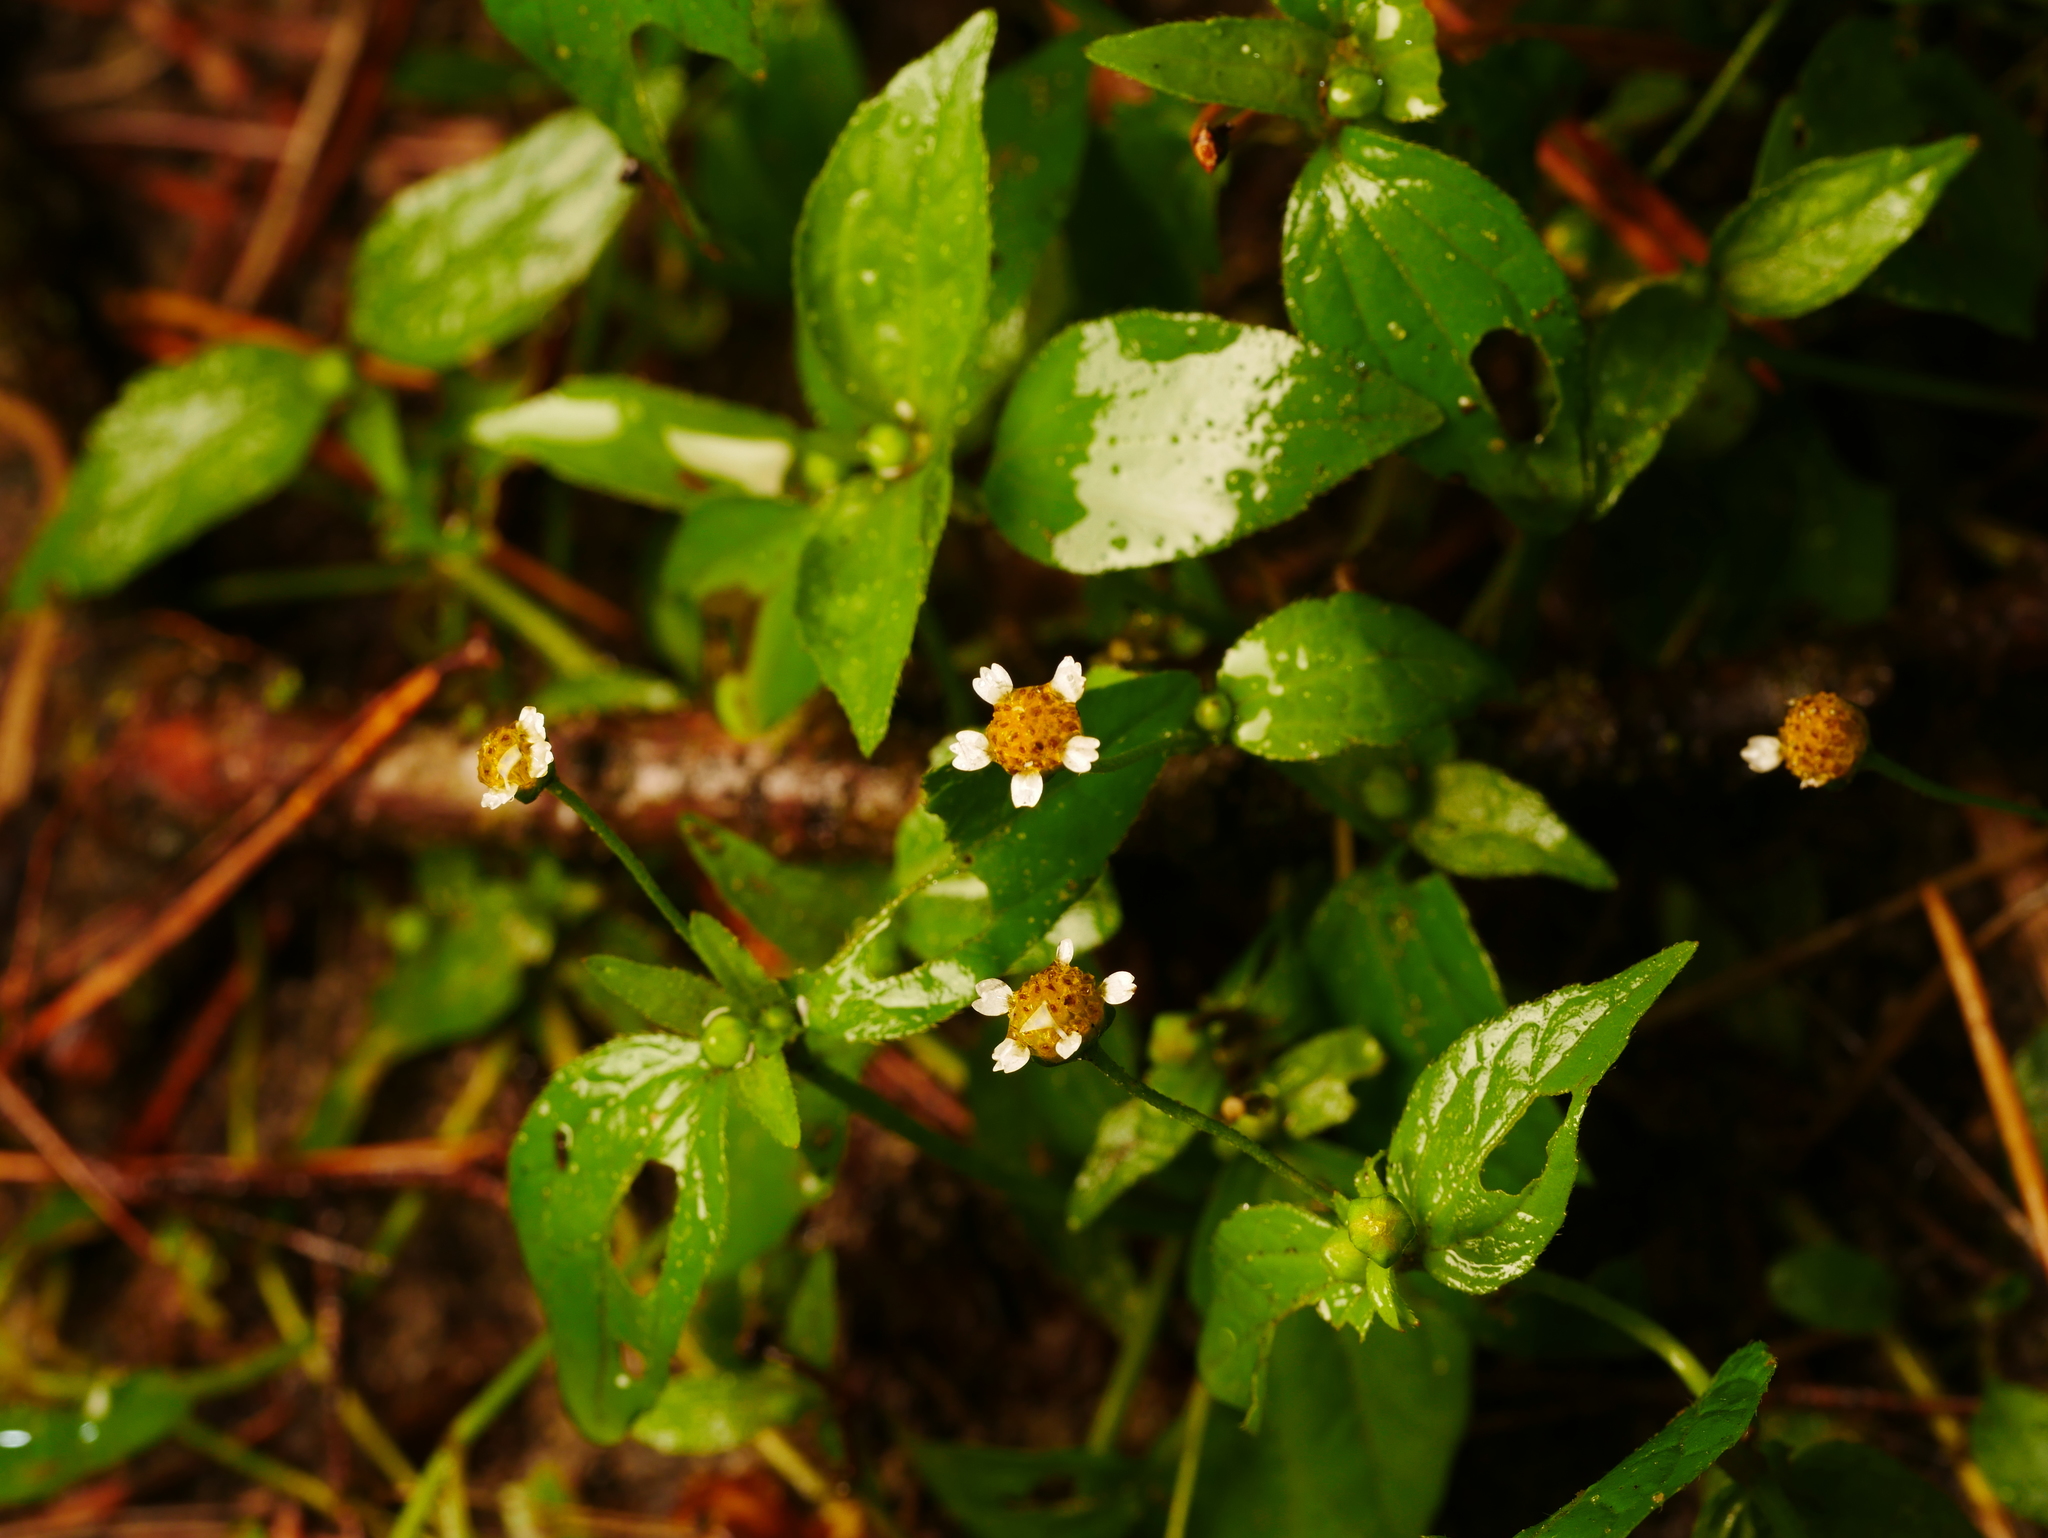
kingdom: Plantae
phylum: Tracheophyta
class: Magnoliopsida
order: Asterales
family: Asteraceae
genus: Galinsoga
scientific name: Galinsoga parviflora
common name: Gallant soldier
